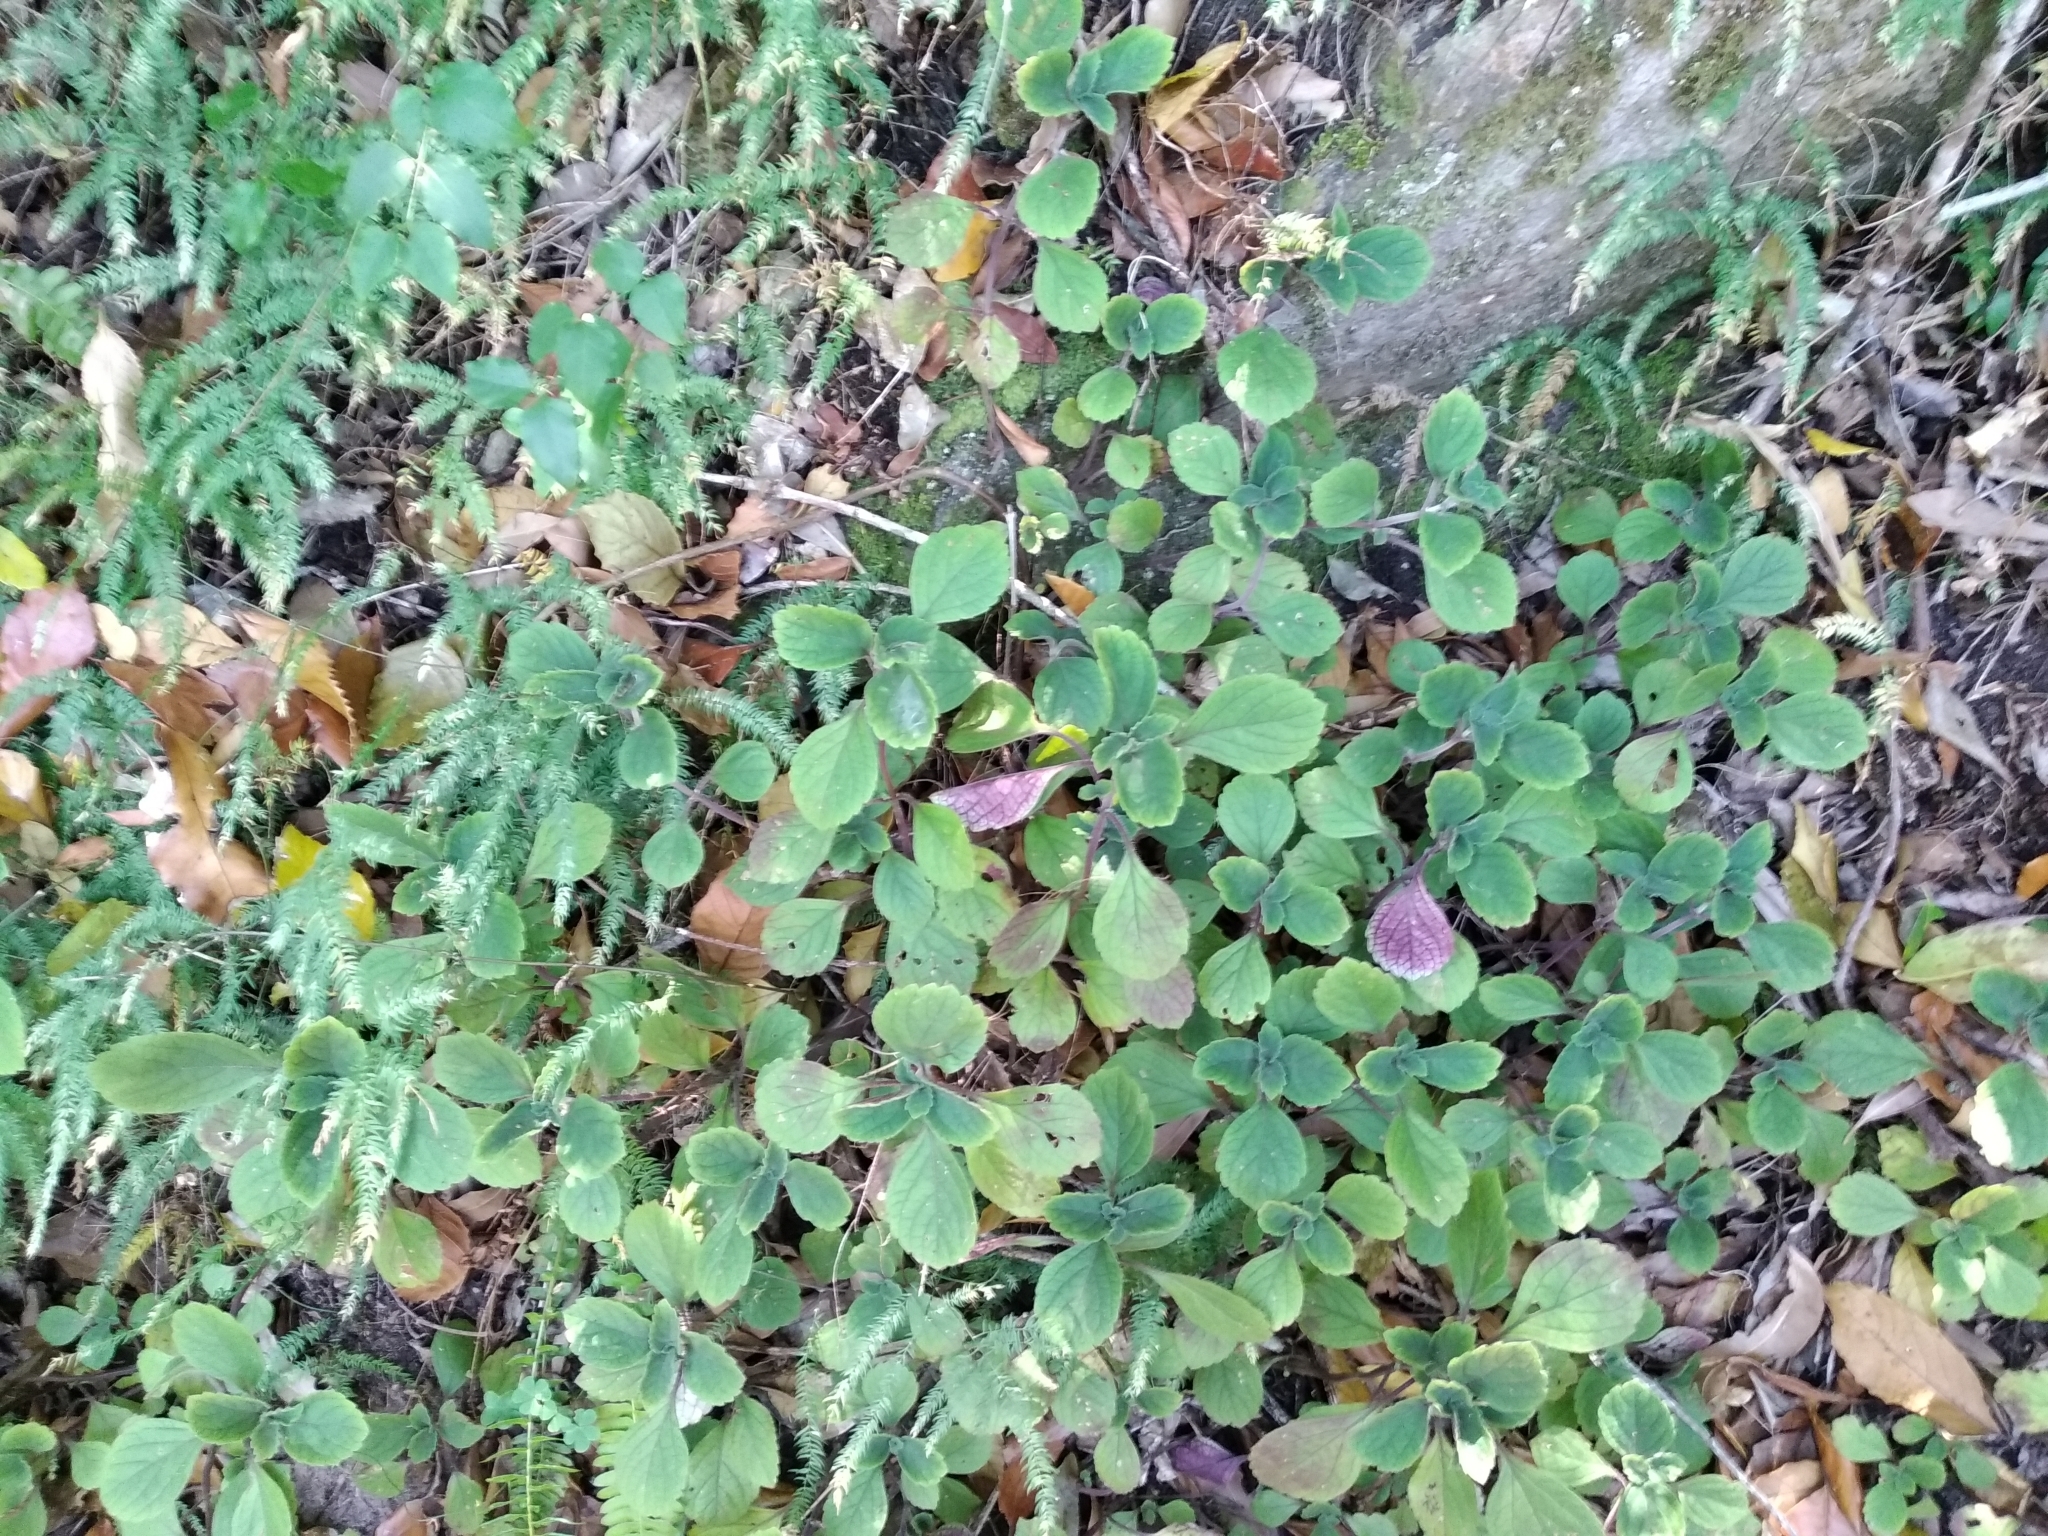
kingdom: Plantae
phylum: Tracheophyta
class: Magnoliopsida
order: Lamiales
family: Lamiaceae
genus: Plectranthus
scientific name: Plectranthus malvinus
